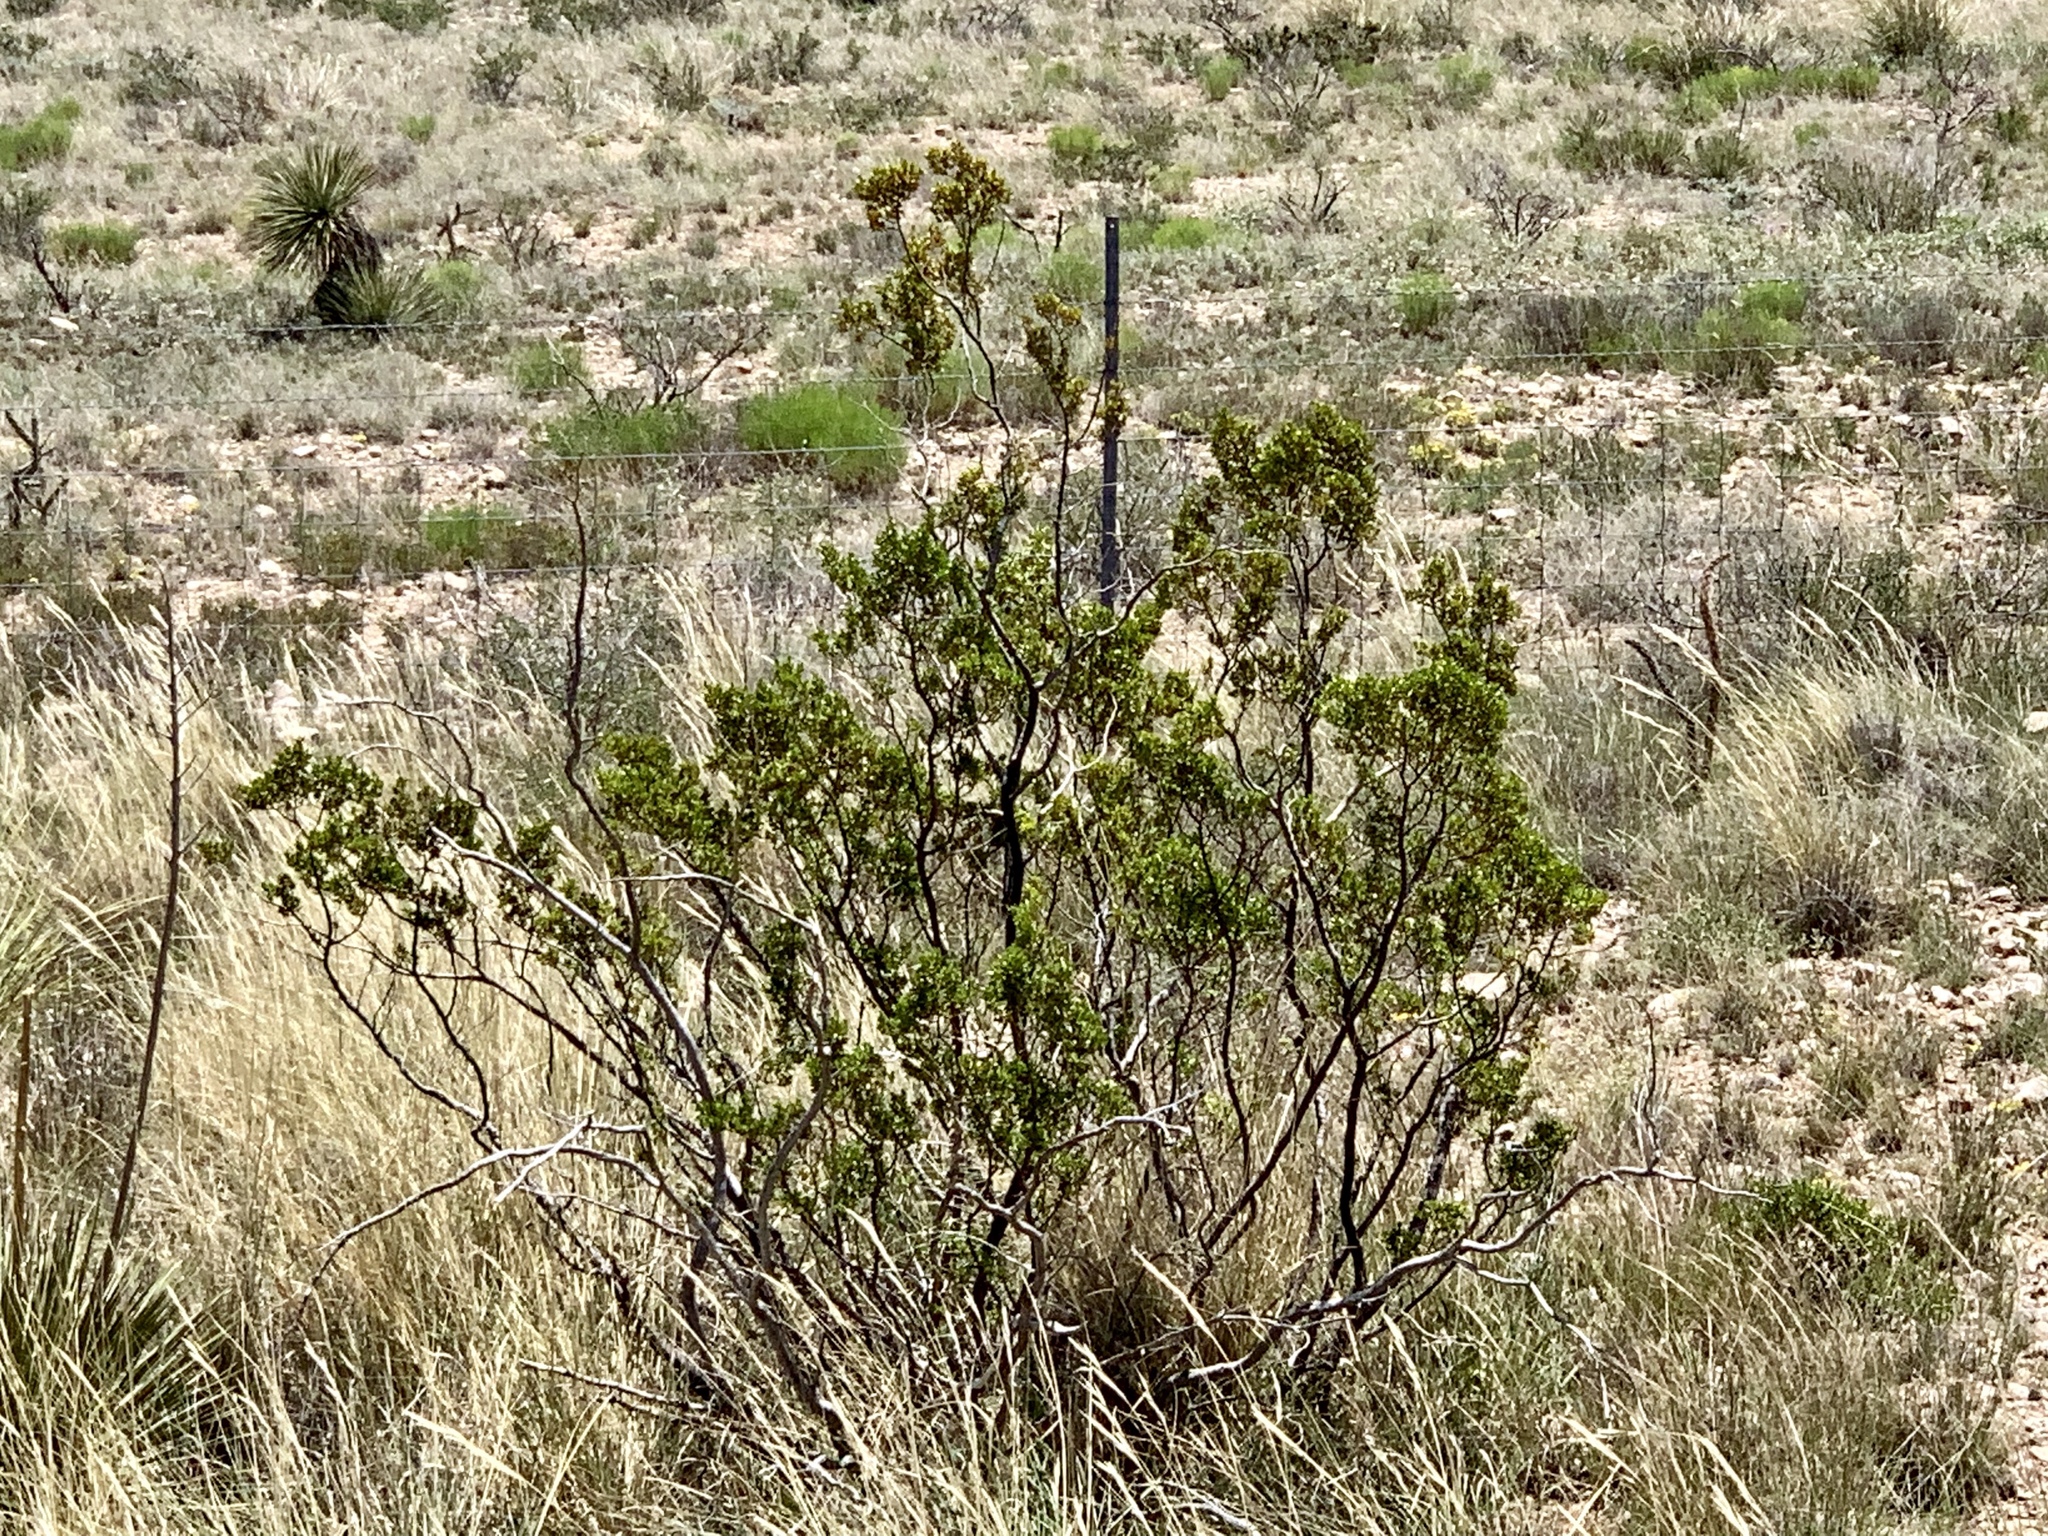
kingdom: Plantae
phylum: Tracheophyta
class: Magnoliopsida
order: Zygophyllales
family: Zygophyllaceae
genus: Larrea
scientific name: Larrea tridentata
